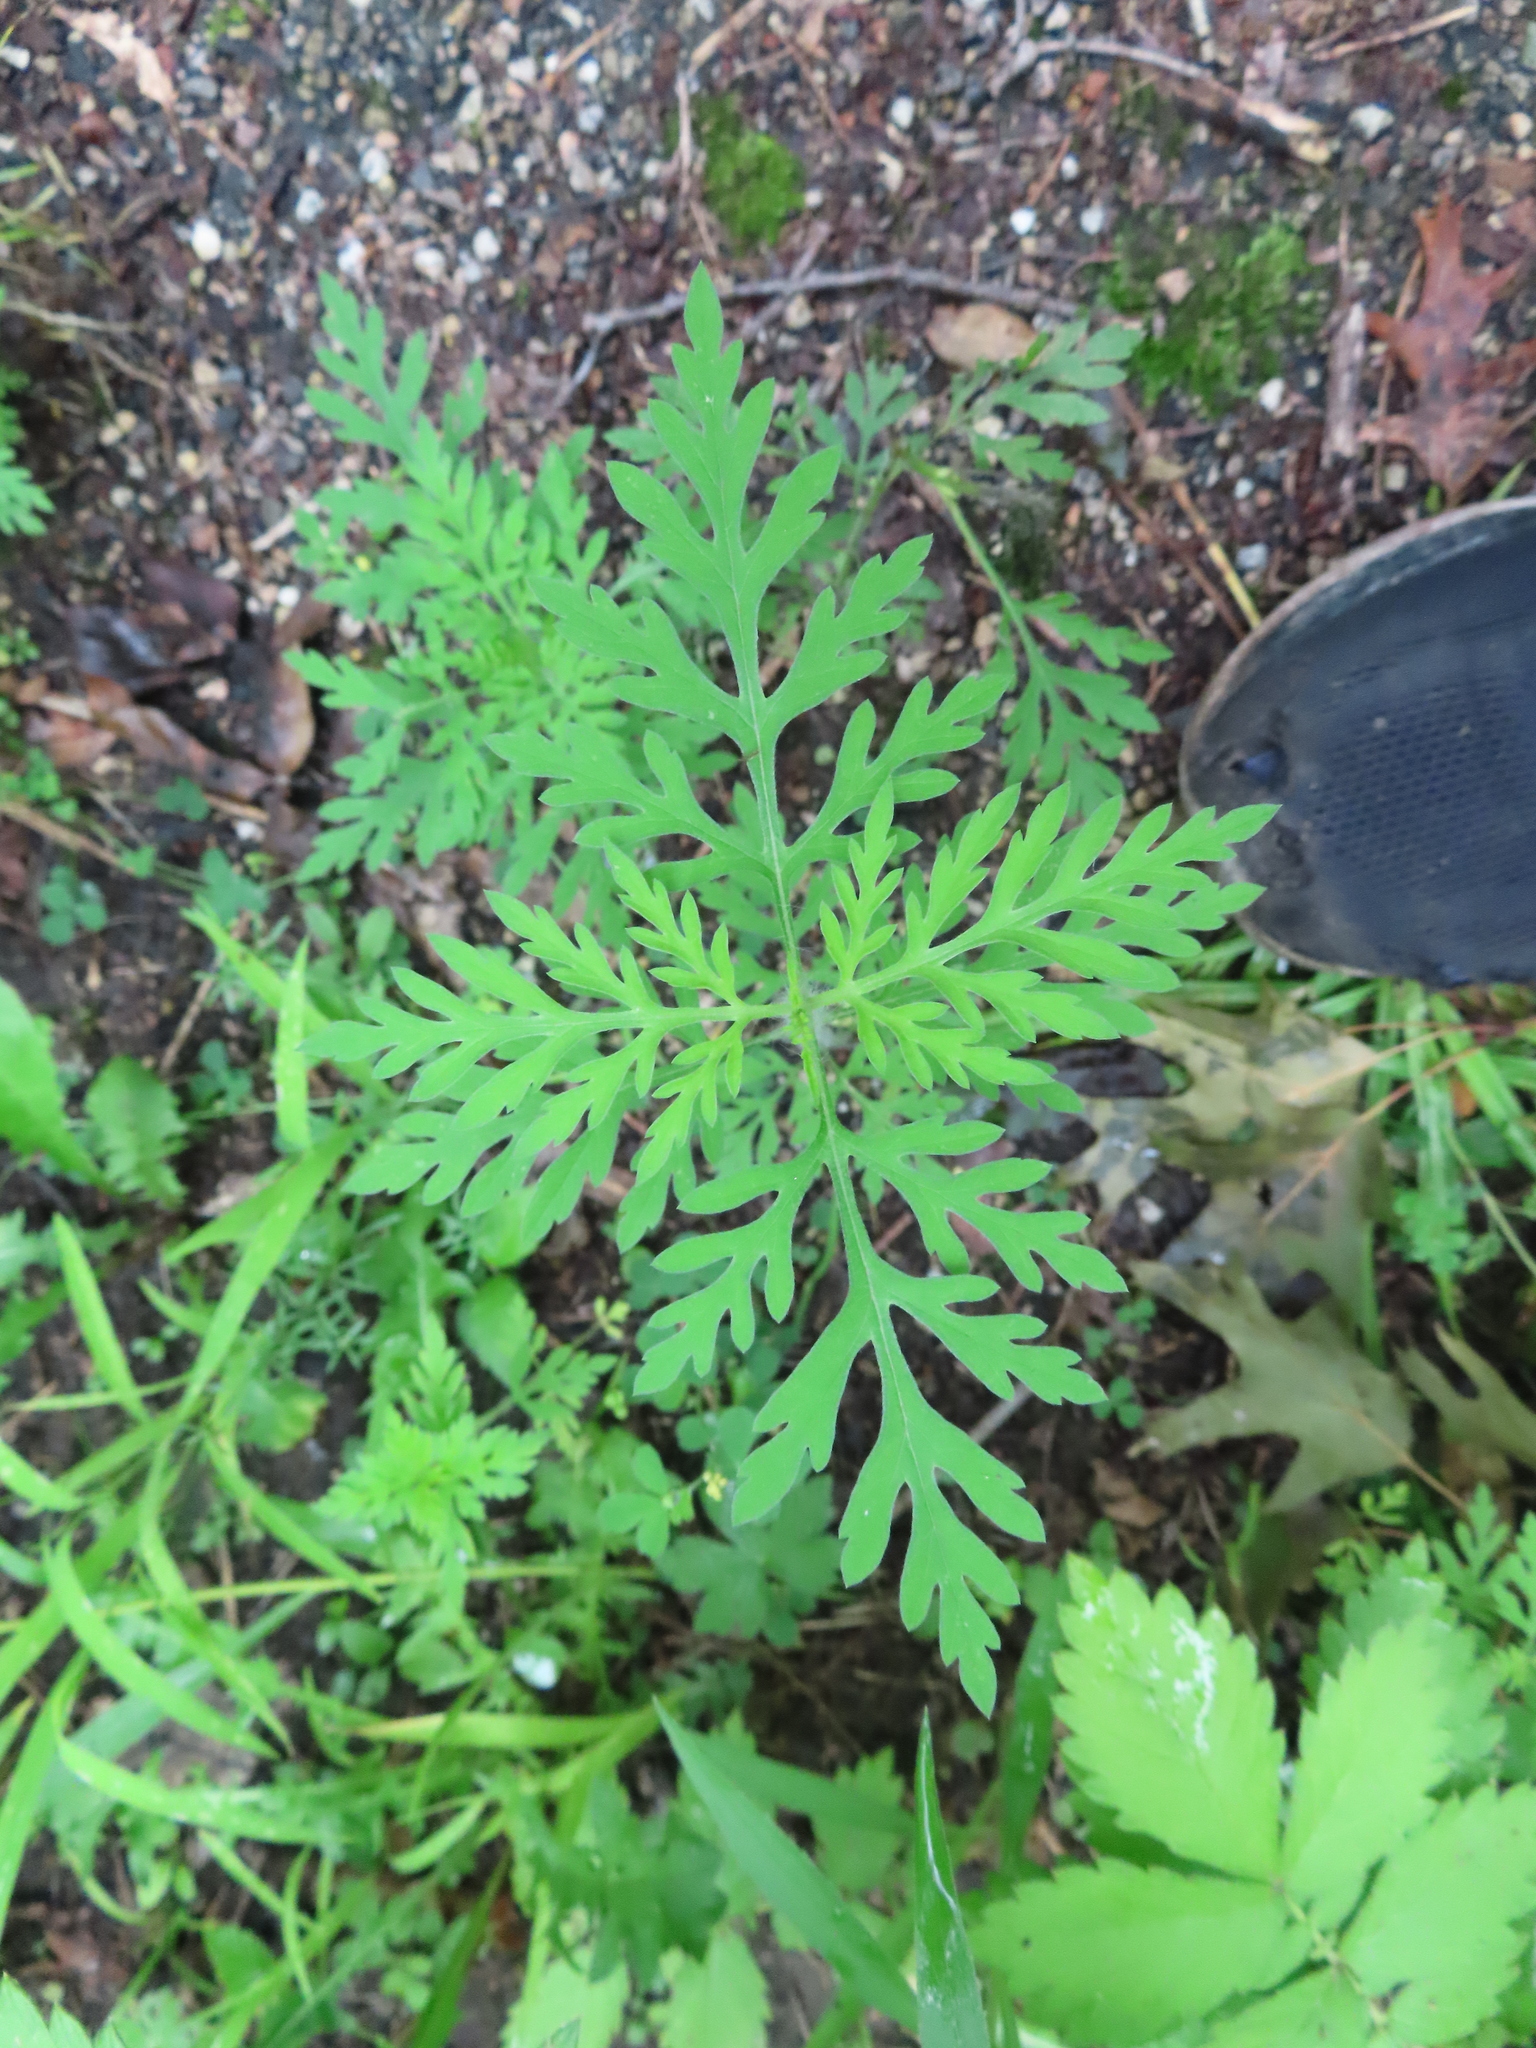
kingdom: Plantae
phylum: Tracheophyta
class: Magnoliopsida
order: Asterales
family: Asteraceae
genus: Ambrosia
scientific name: Ambrosia artemisiifolia
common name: Annual ragweed
